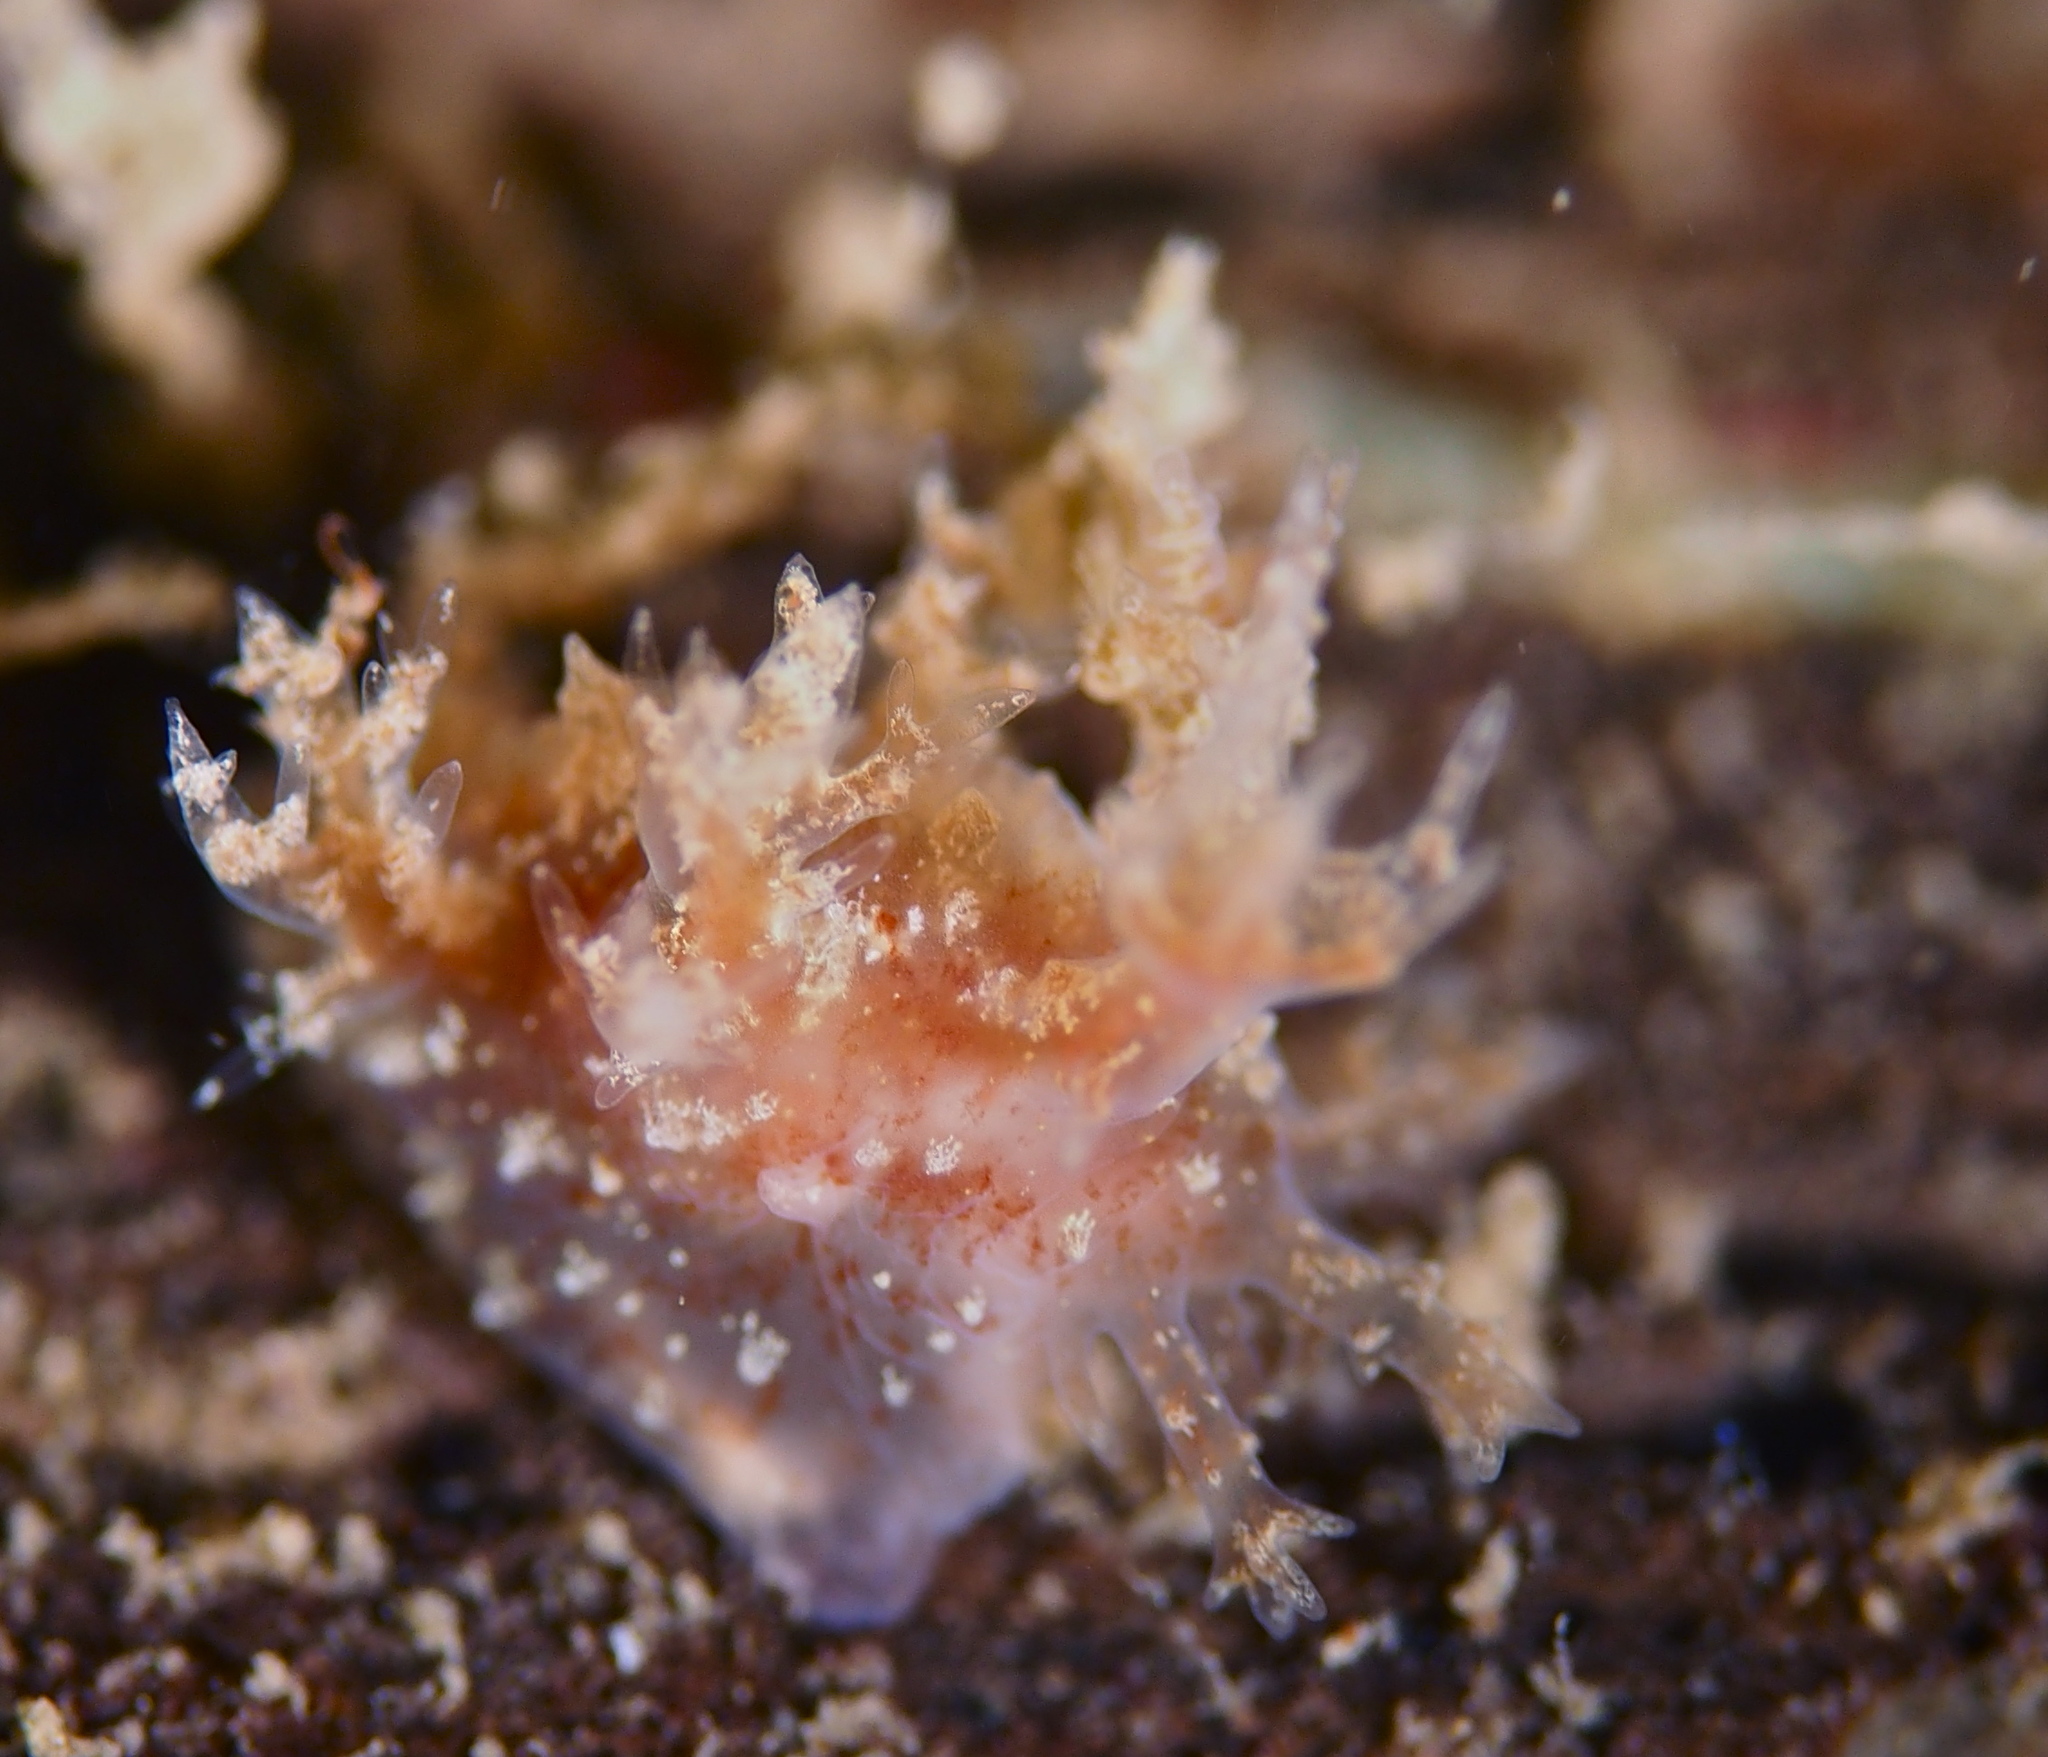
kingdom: Animalia
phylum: Mollusca
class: Gastropoda
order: Nudibranchia
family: Dendronotidae
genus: Dendronotus
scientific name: Dendronotus frondosus
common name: Bushy-backed nudibranch
